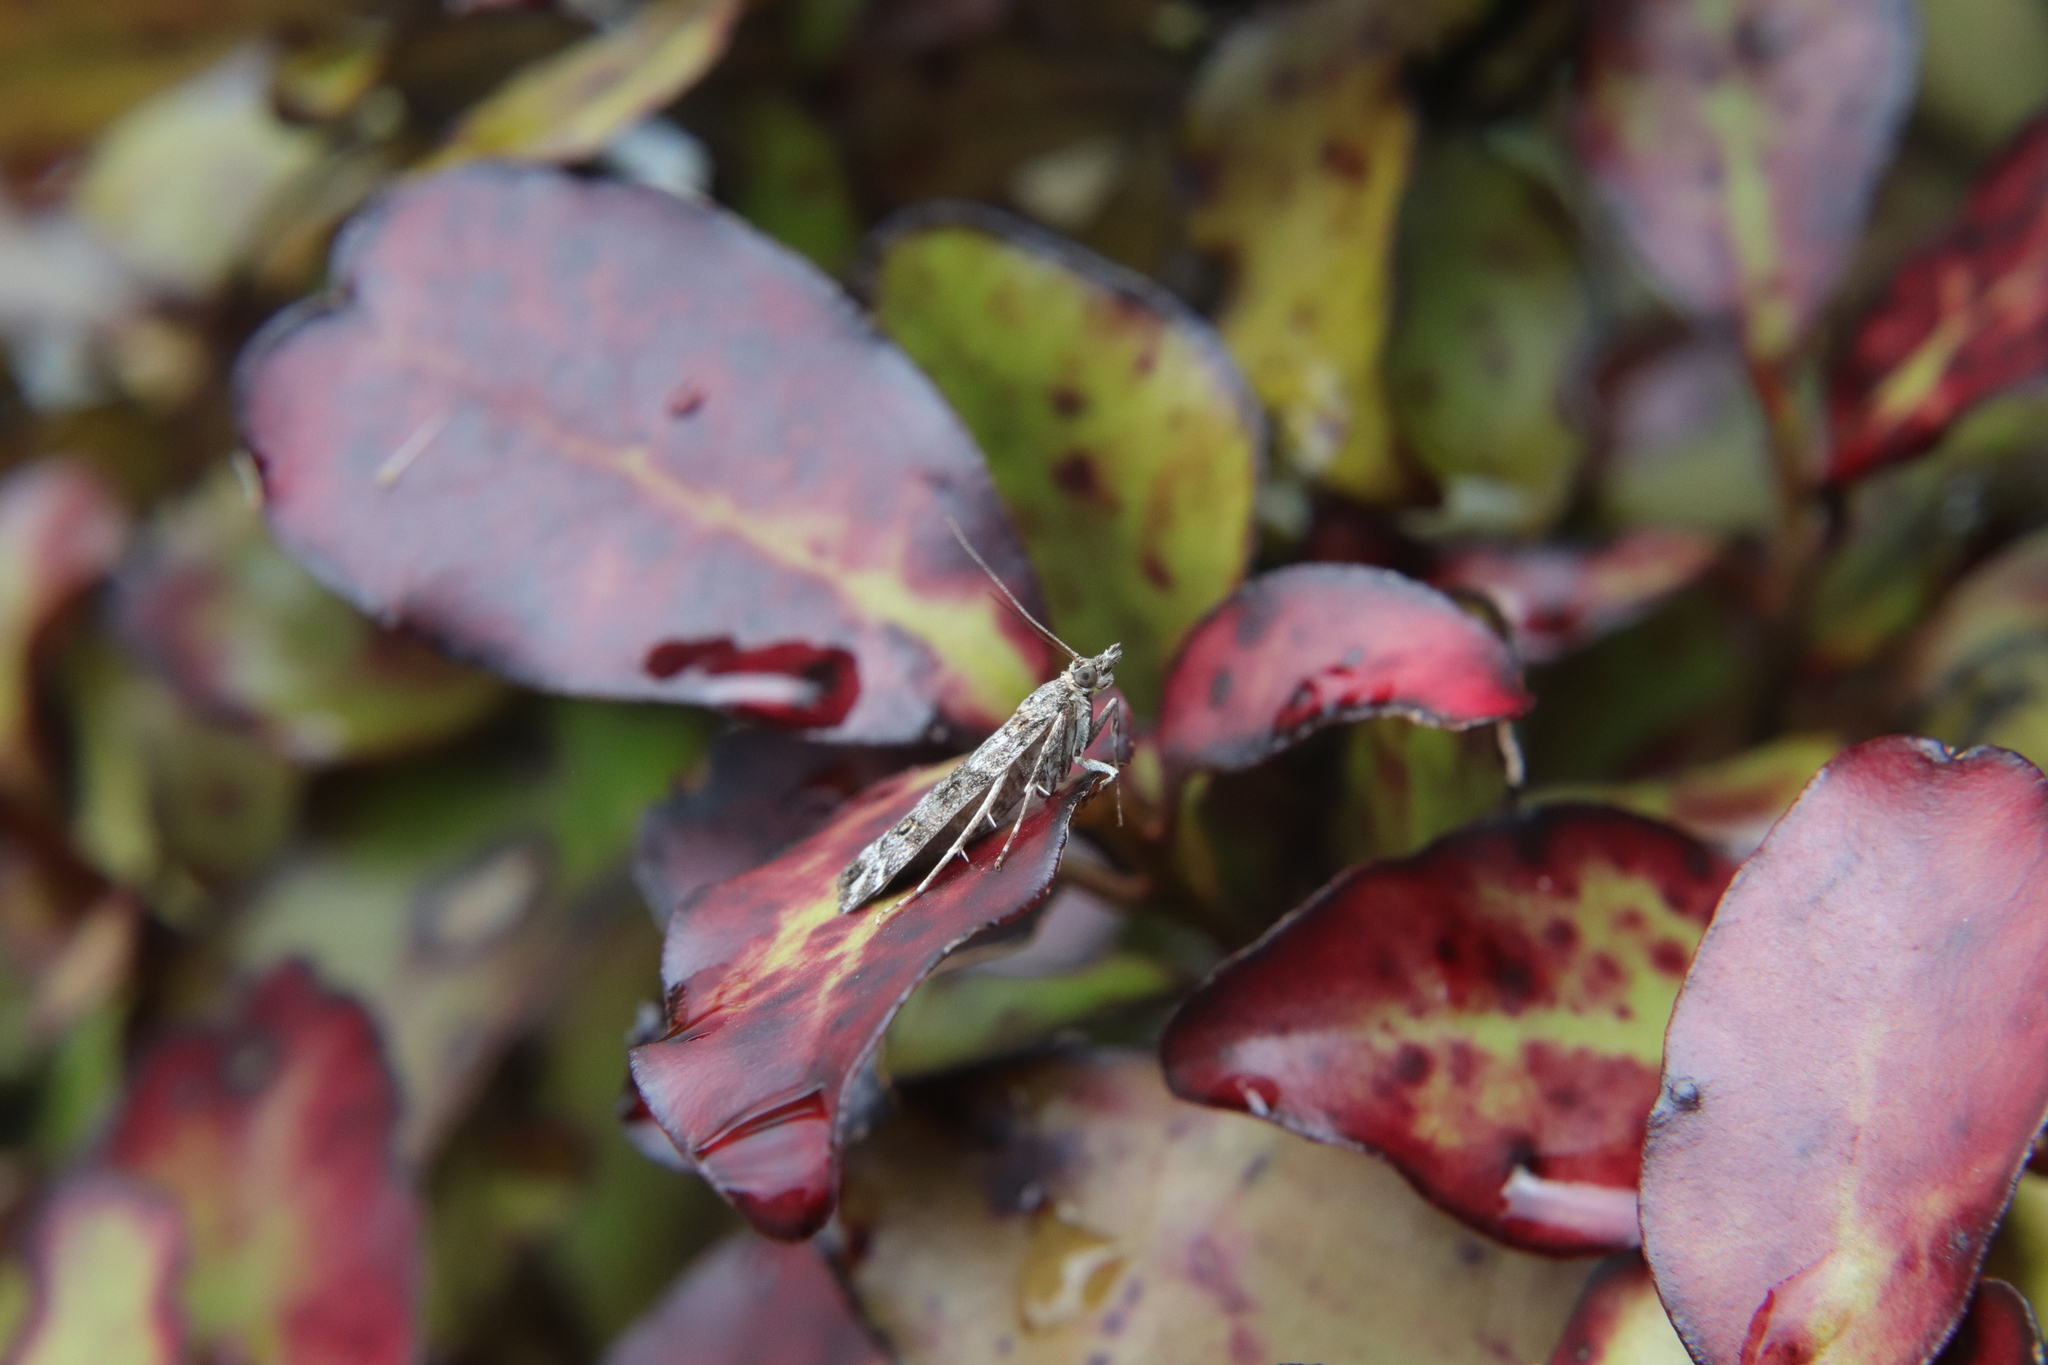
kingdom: Animalia
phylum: Arthropoda
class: Insecta
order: Lepidoptera
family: Crambidae
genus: Eudonia
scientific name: Eudonia diphtheralis
